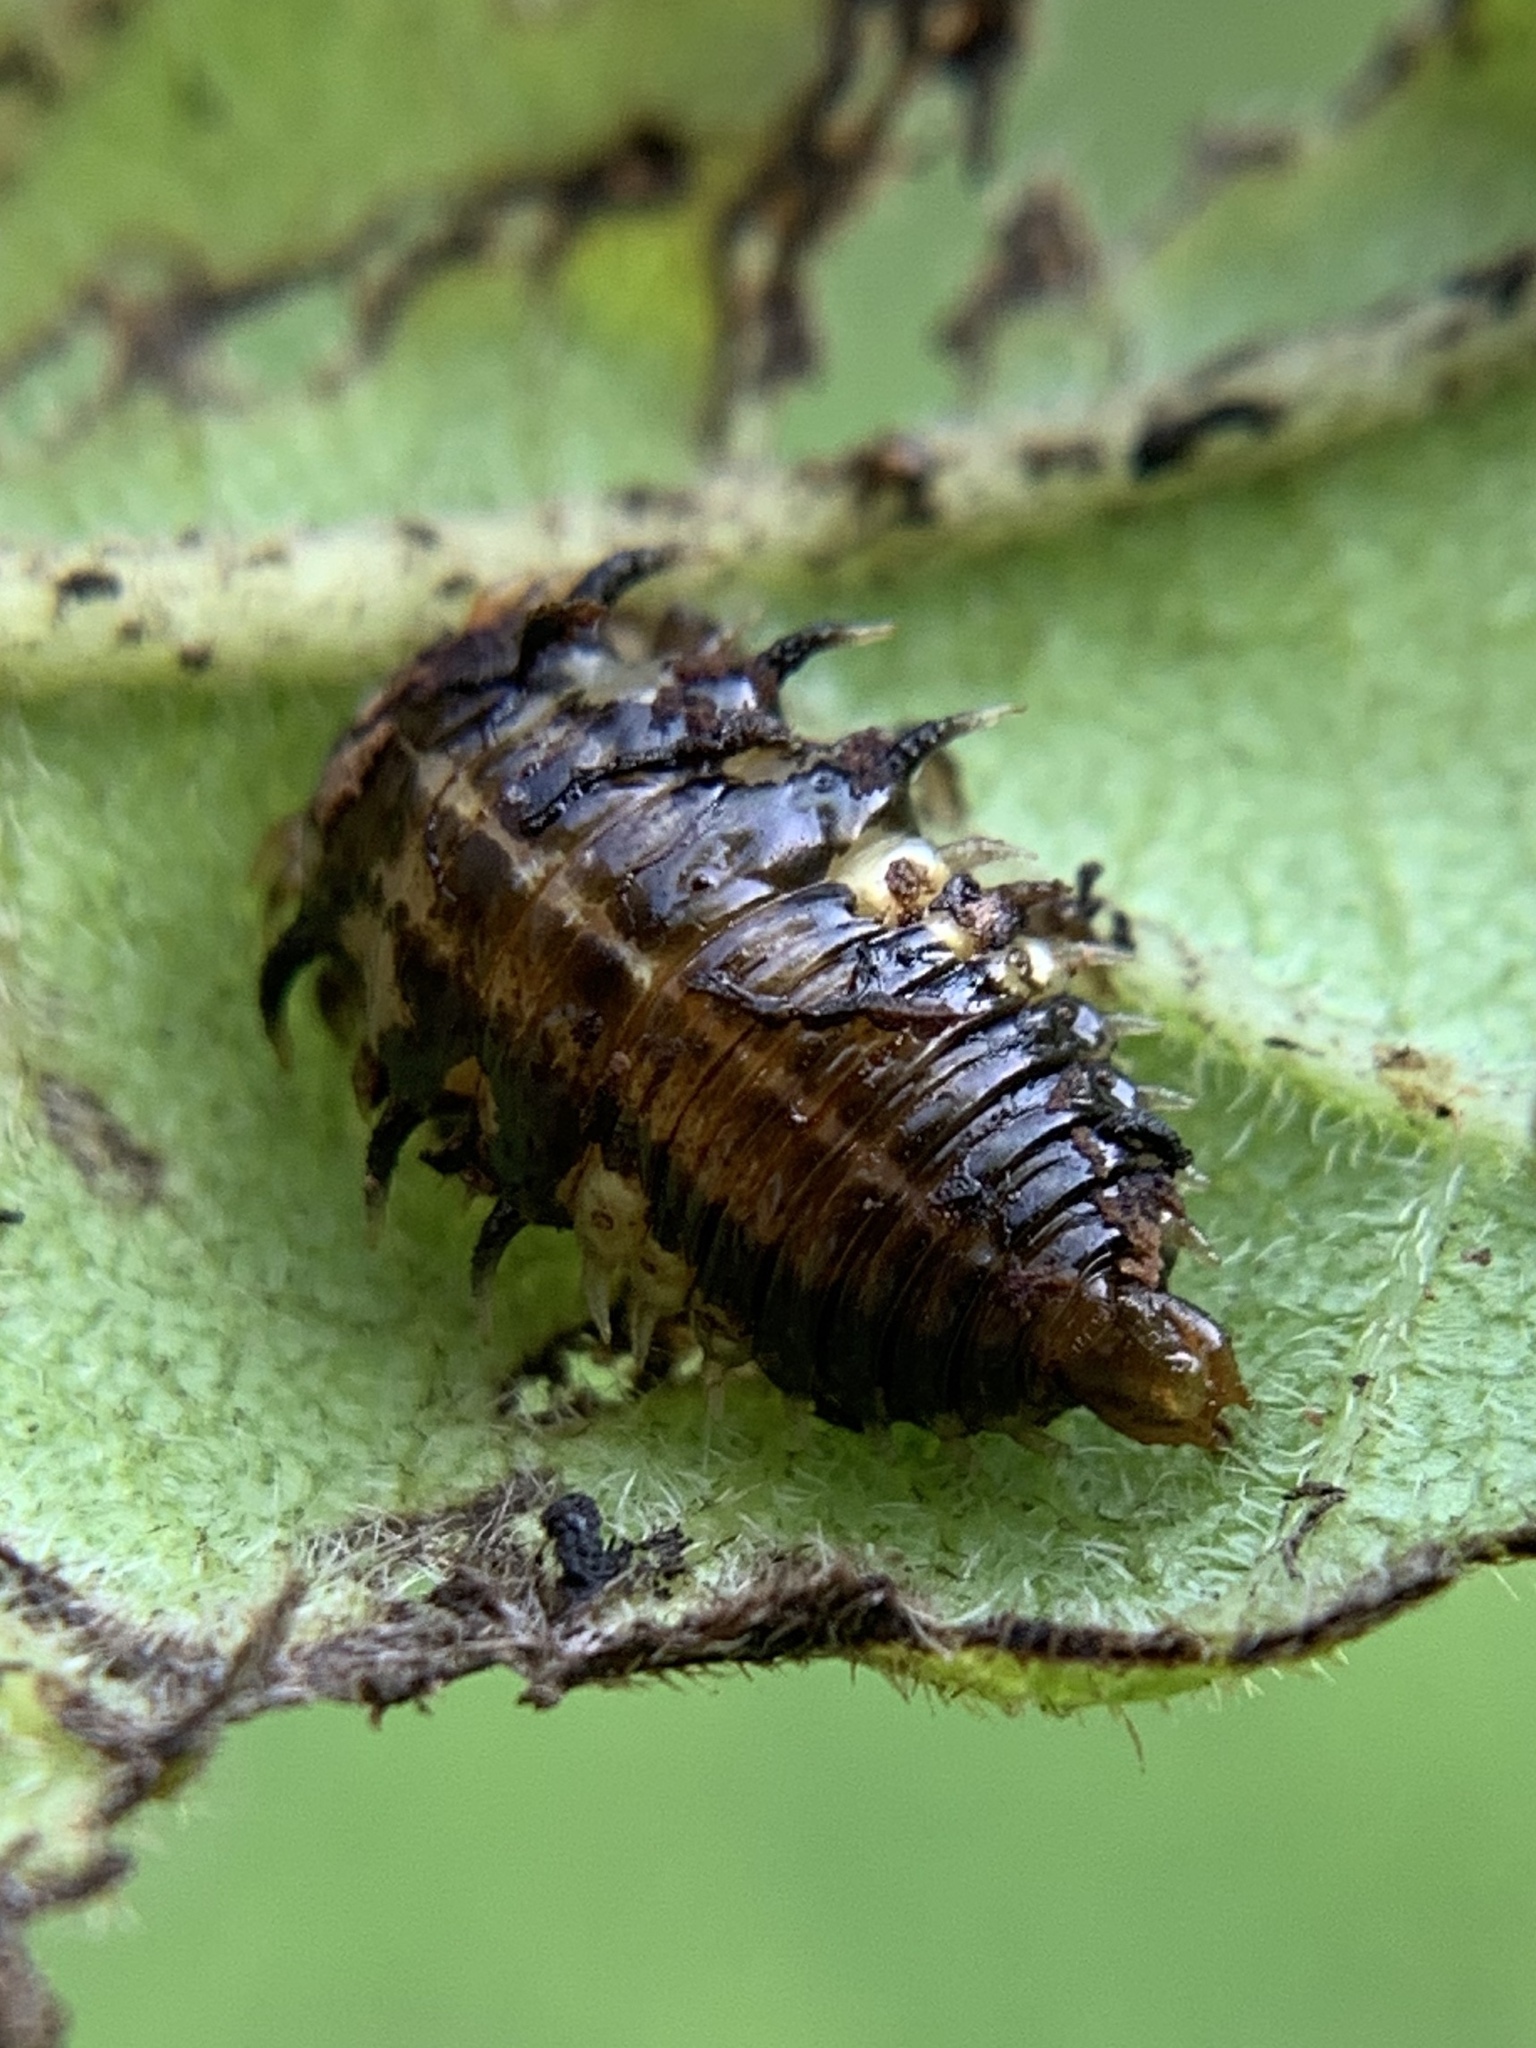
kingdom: Animalia
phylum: Arthropoda
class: Insecta
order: Coleoptera
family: Chrysomelidae
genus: Eurypepla
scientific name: Eurypepla calochroma
